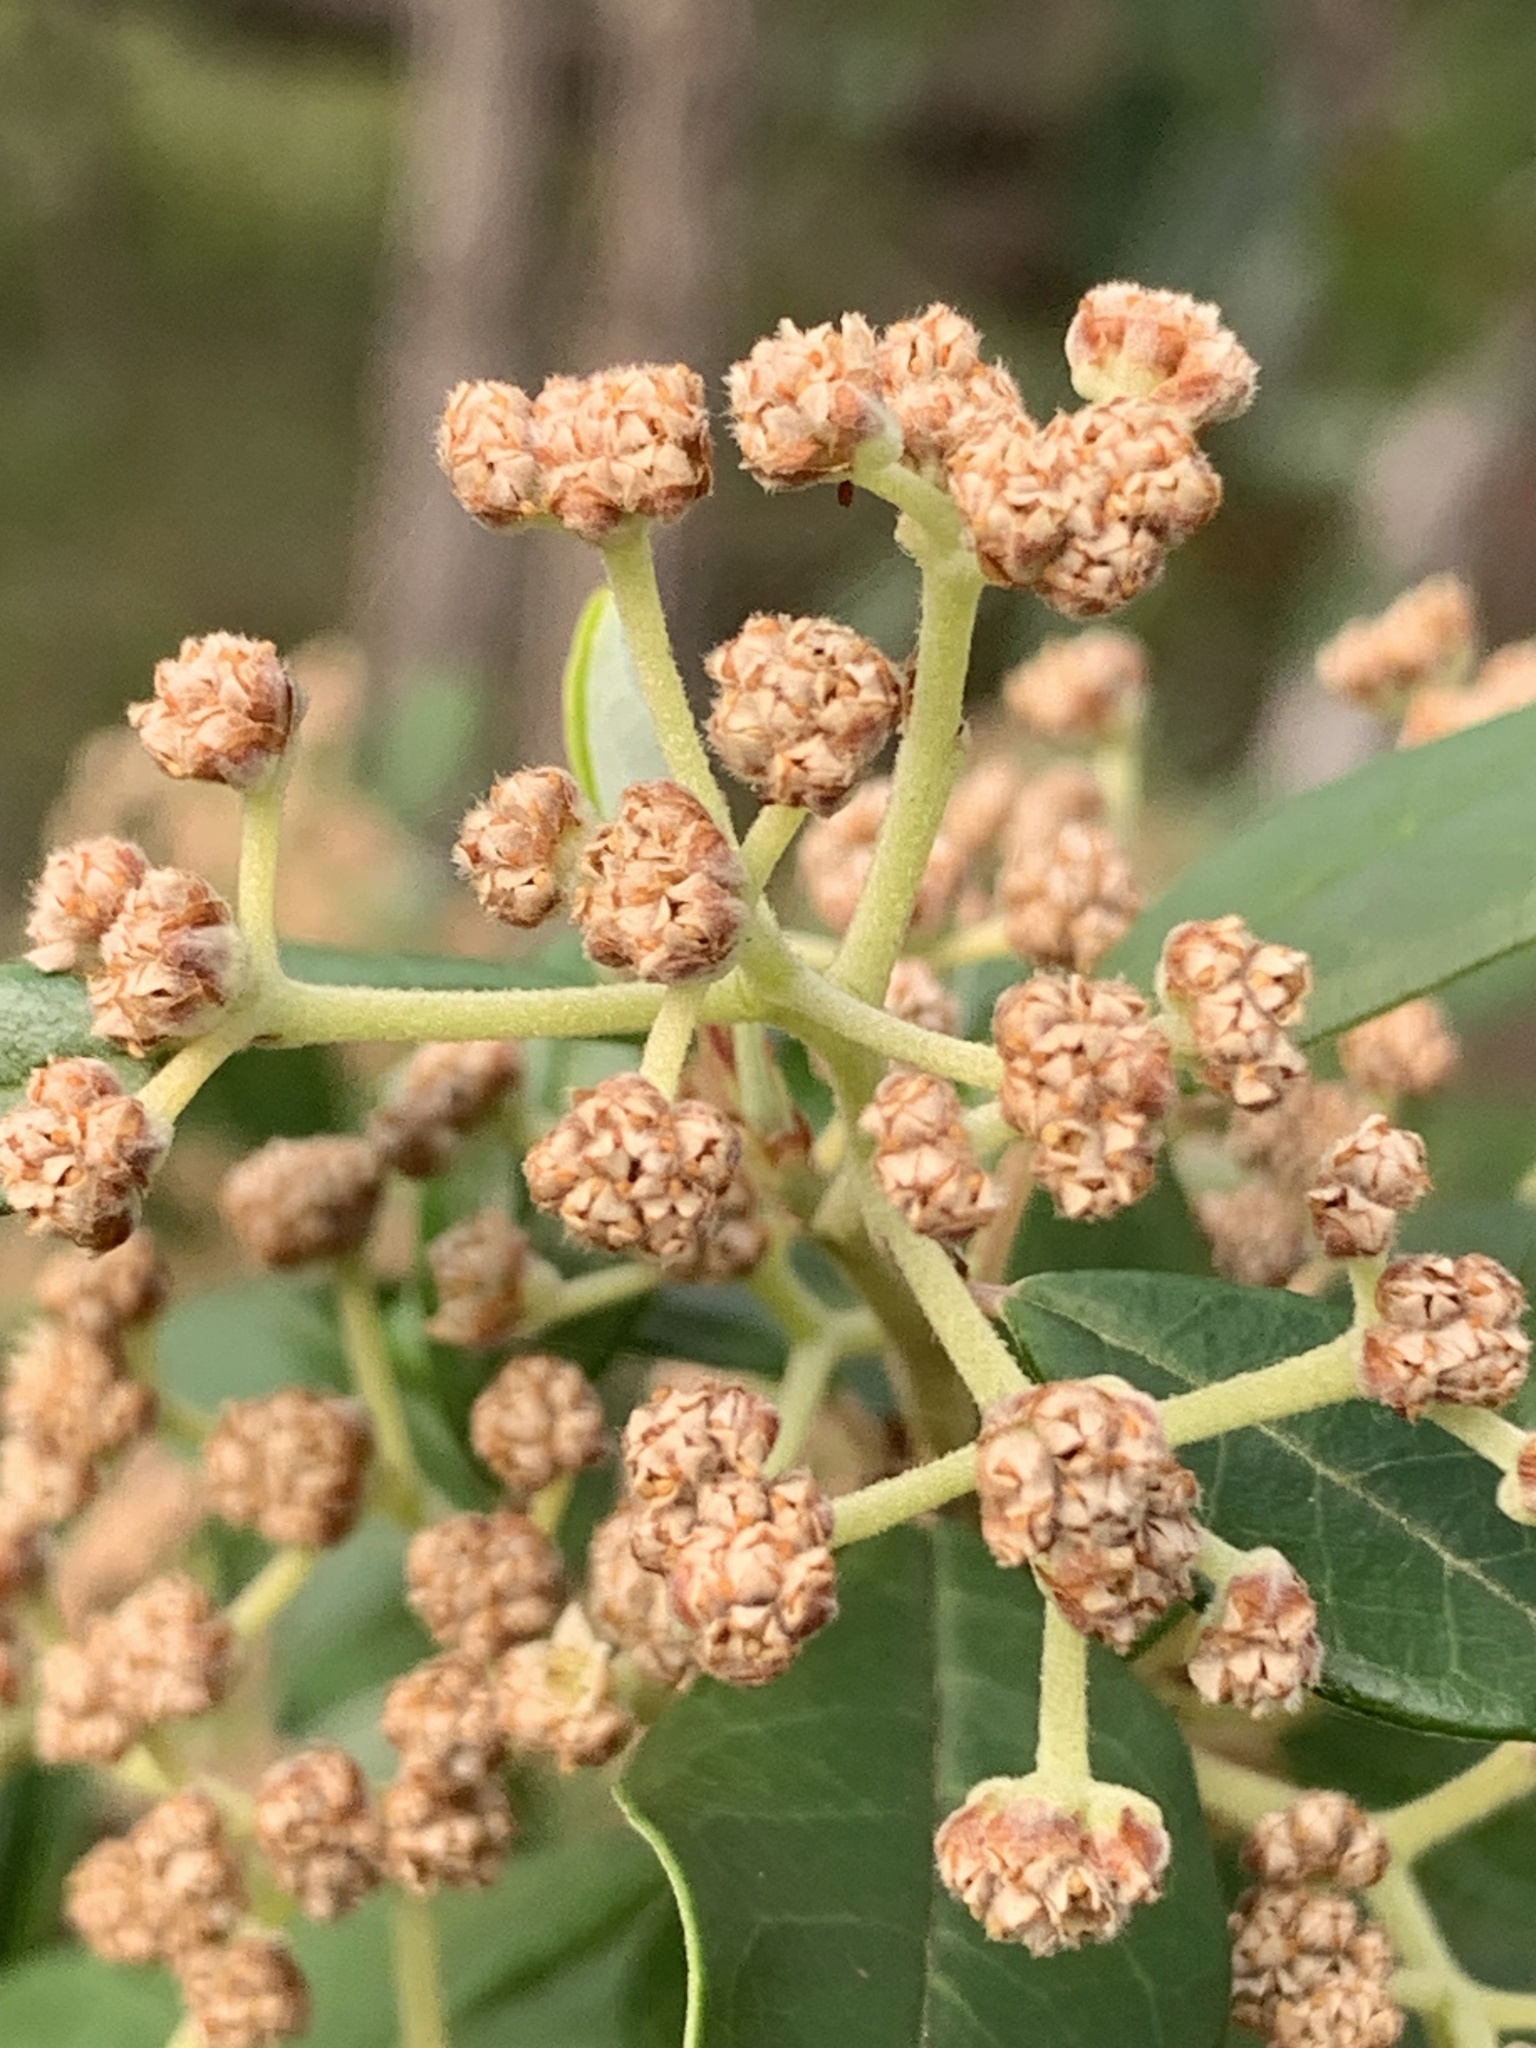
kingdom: Plantae
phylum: Tracheophyta
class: Magnoliopsida
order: Rosales
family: Rhamnaceae
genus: Spyridium
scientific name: Spyridium globulosum
